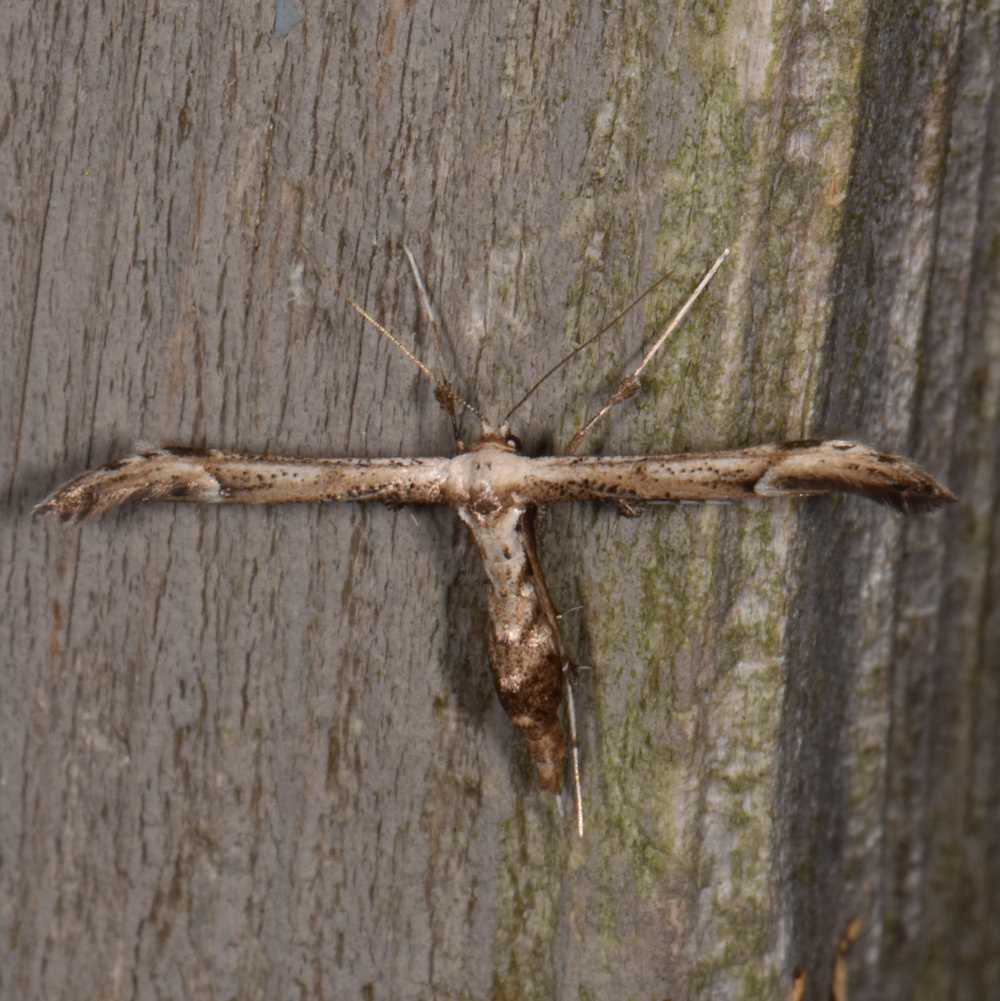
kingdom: Animalia
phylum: Arthropoda
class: Insecta
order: Lepidoptera
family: Pterophoridae
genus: Oidaematophorus
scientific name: Oidaematophorus eupatorii
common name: Eupatorium plume moth
